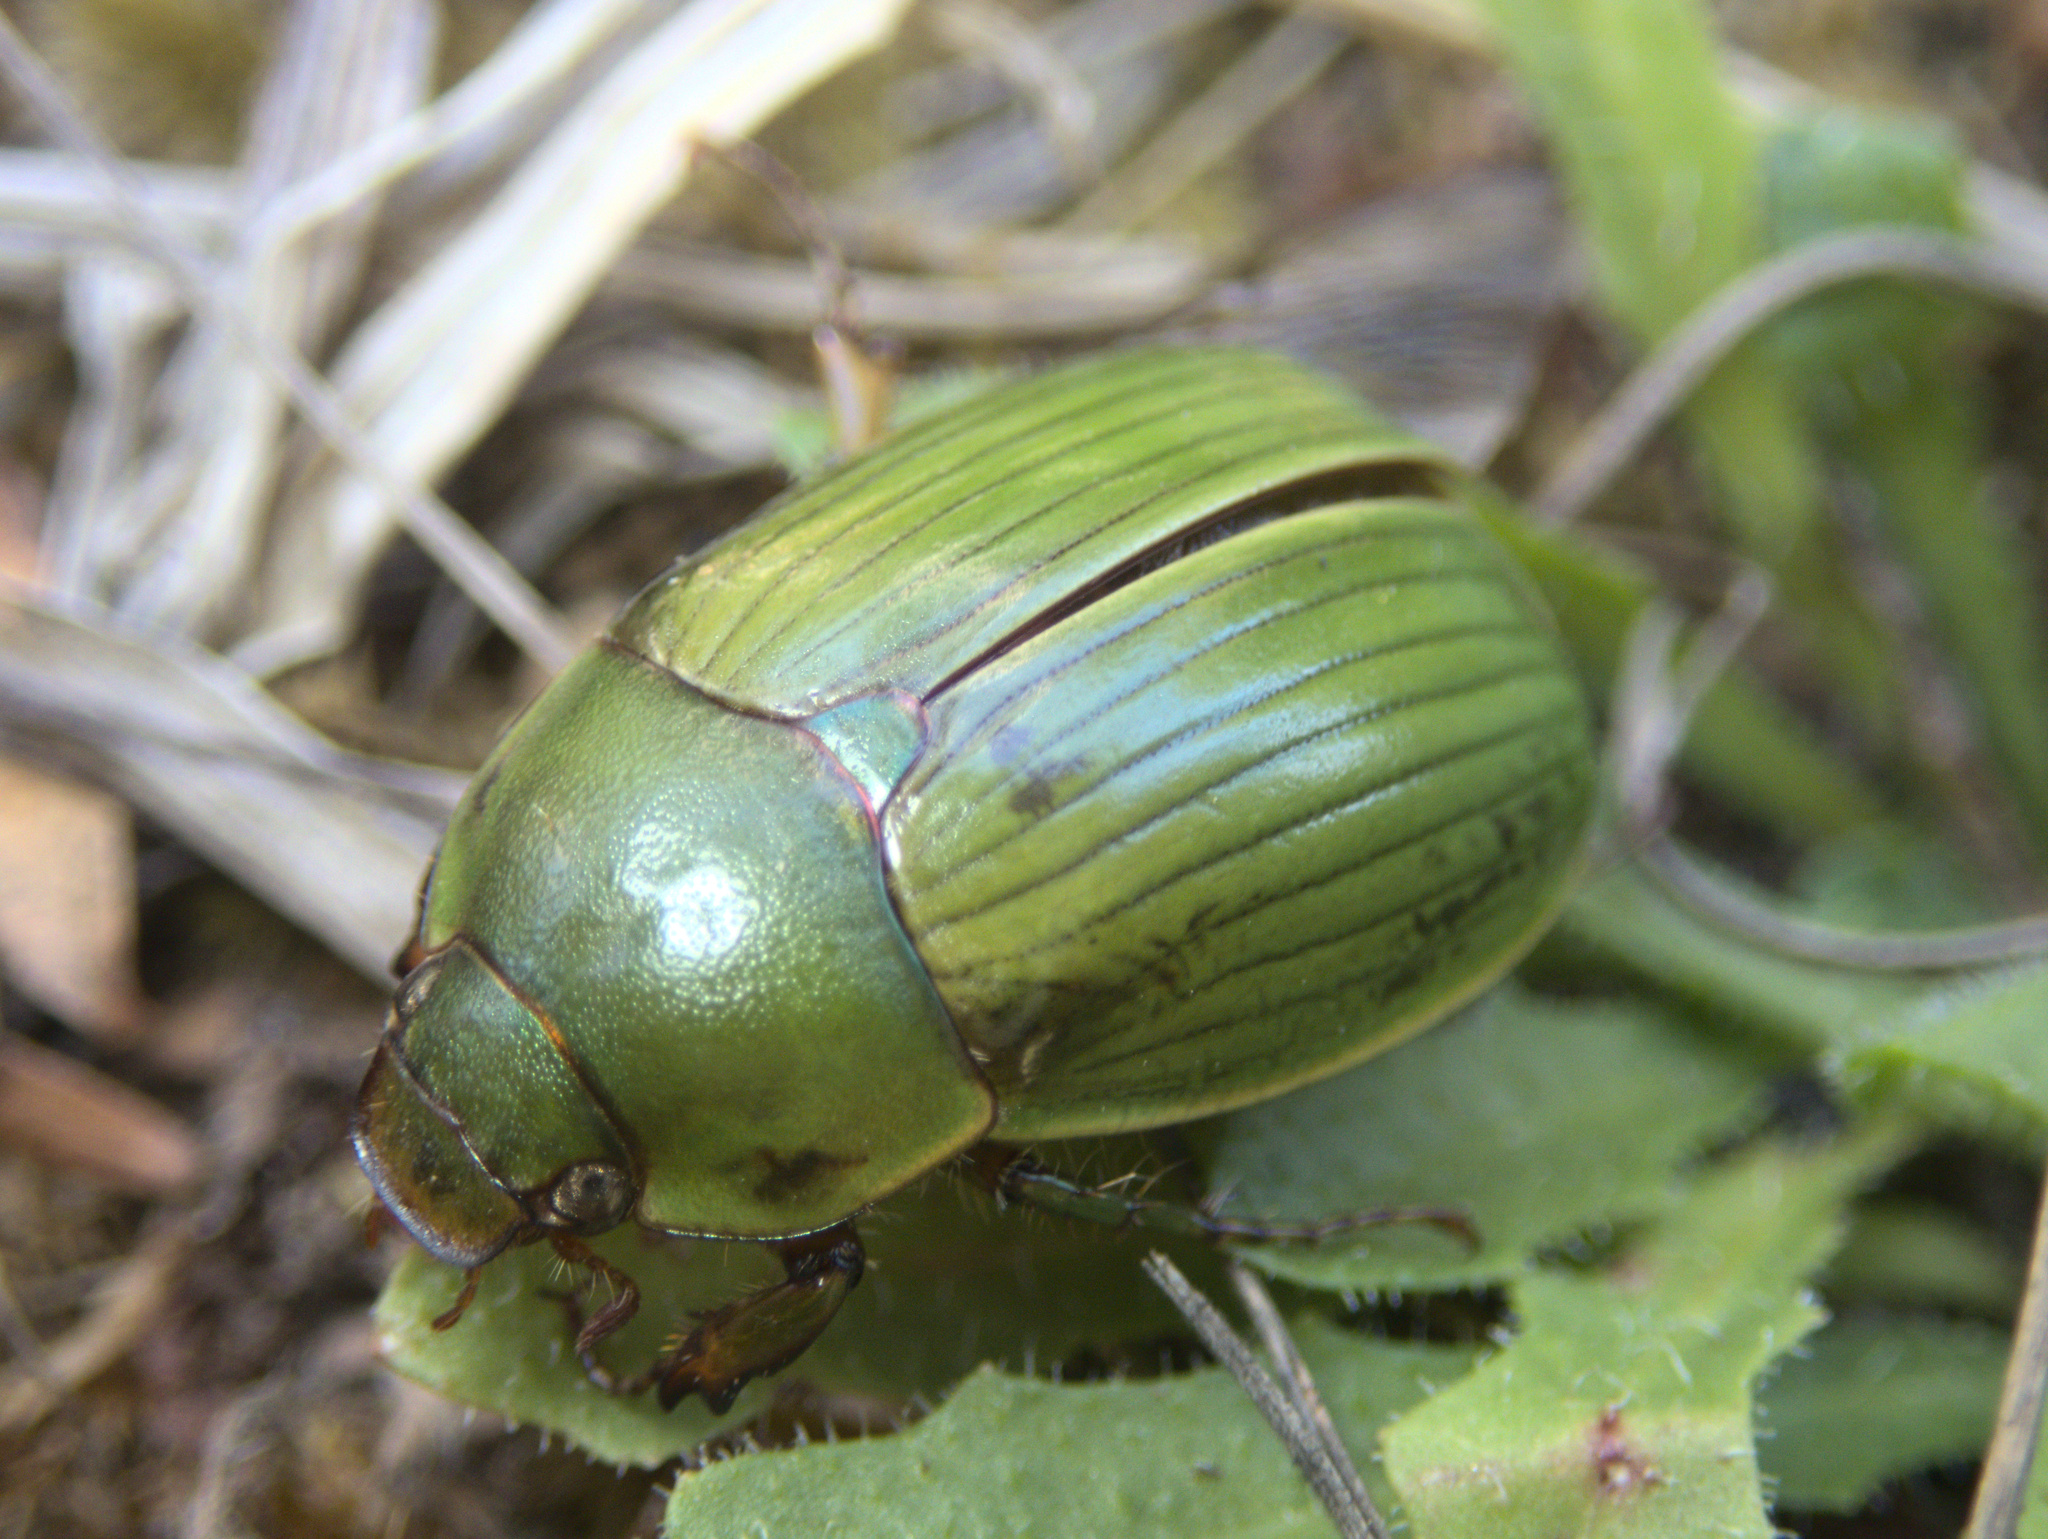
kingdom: Animalia
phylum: Arthropoda
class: Insecta
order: Coleoptera
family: Scarabaeidae
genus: Stethaspis
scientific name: Stethaspis longicornis
